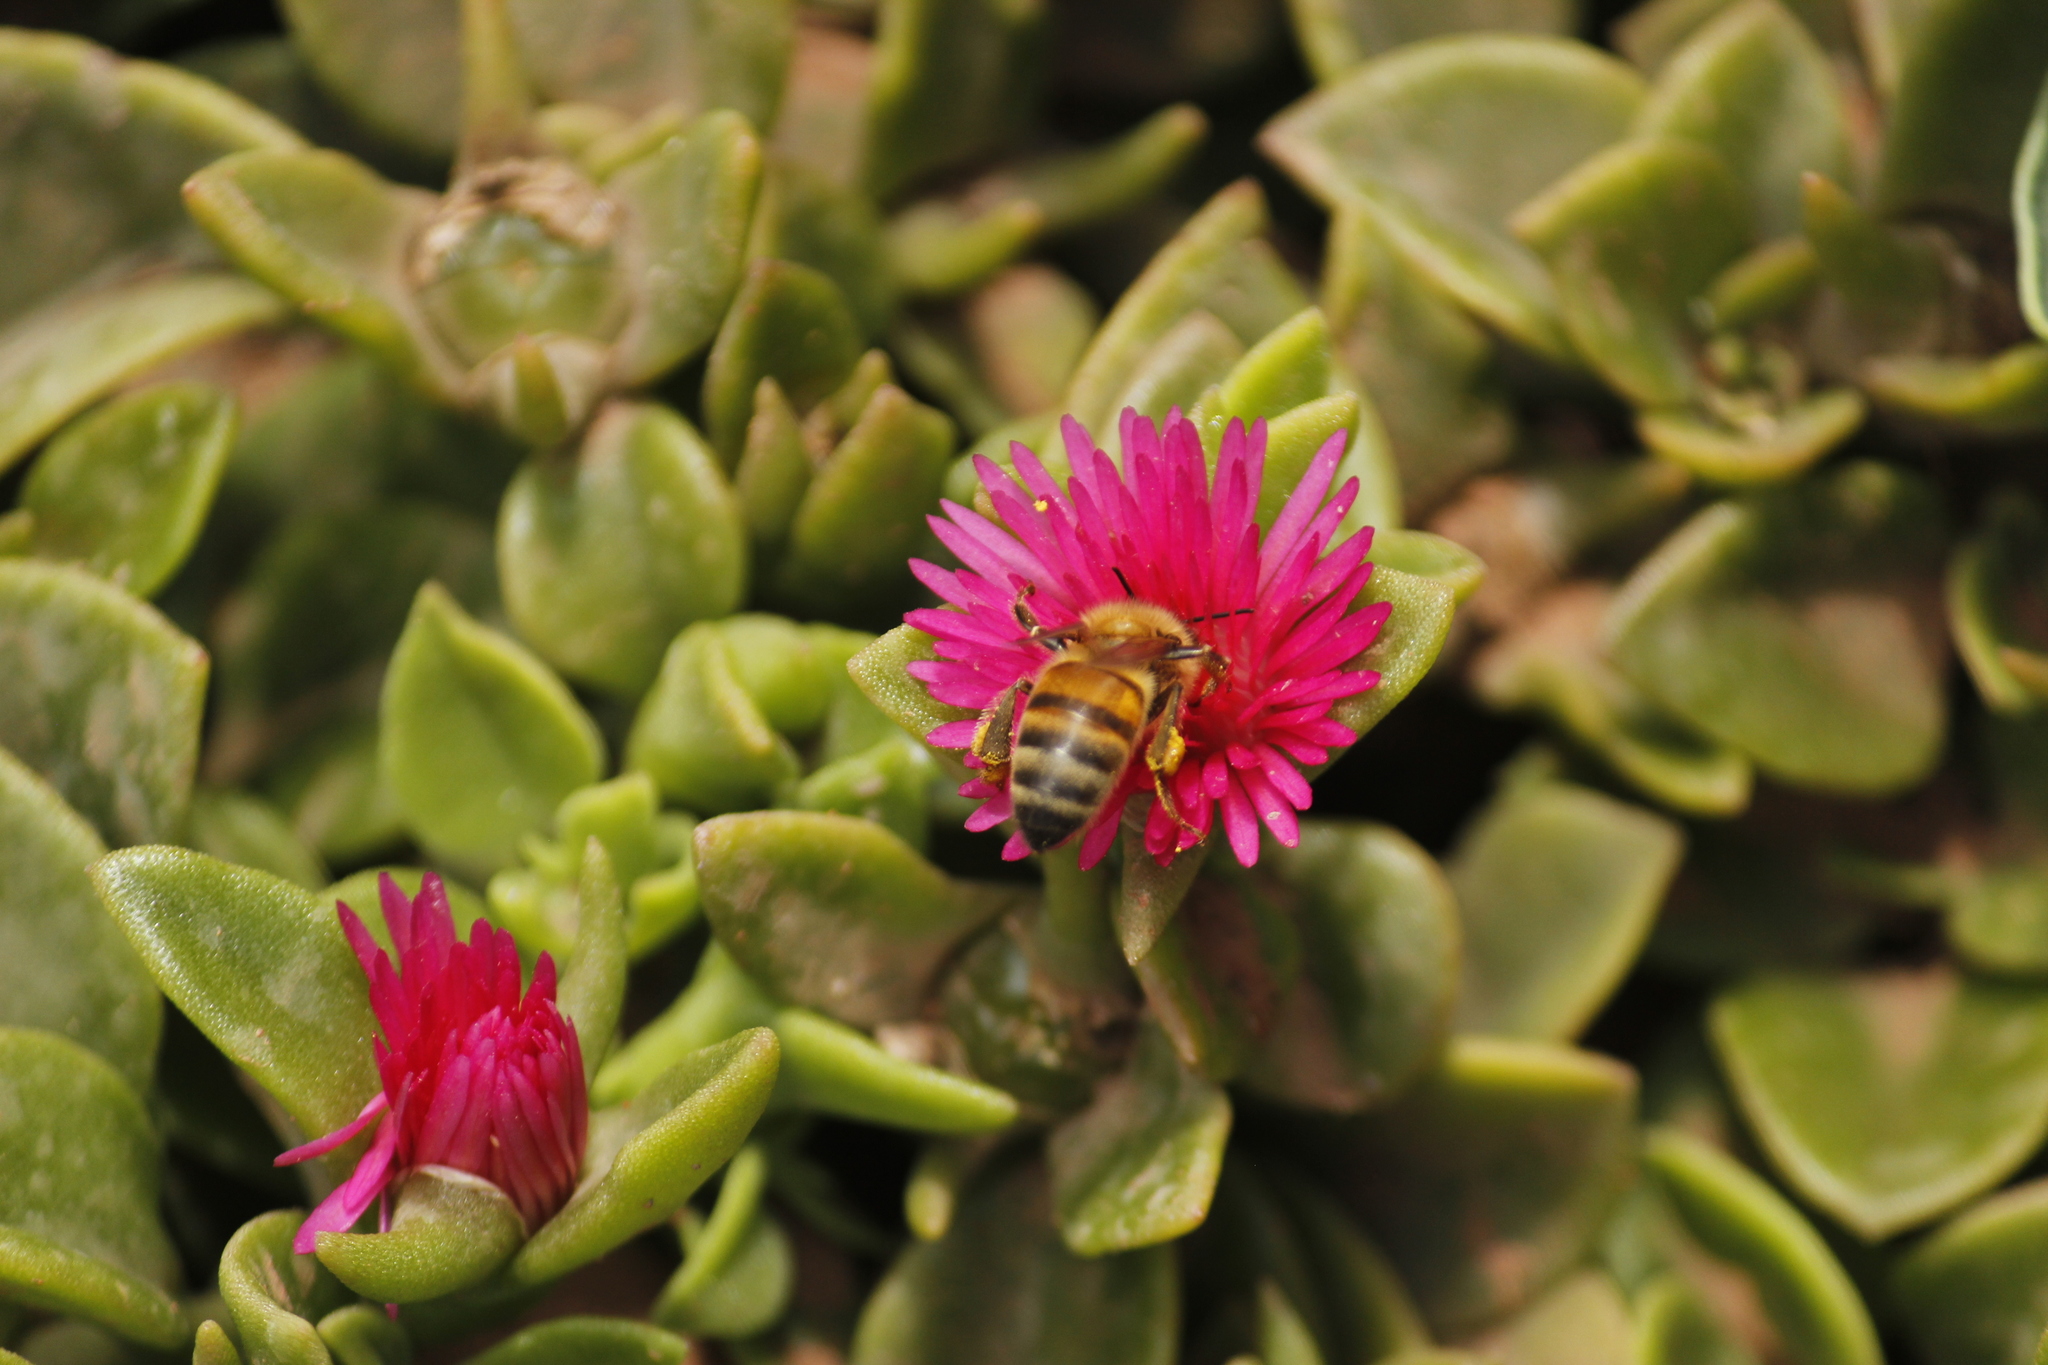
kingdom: Animalia
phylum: Arthropoda
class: Insecta
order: Hymenoptera
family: Apidae
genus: Apis
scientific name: Apis mellifera
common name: Honey bee
